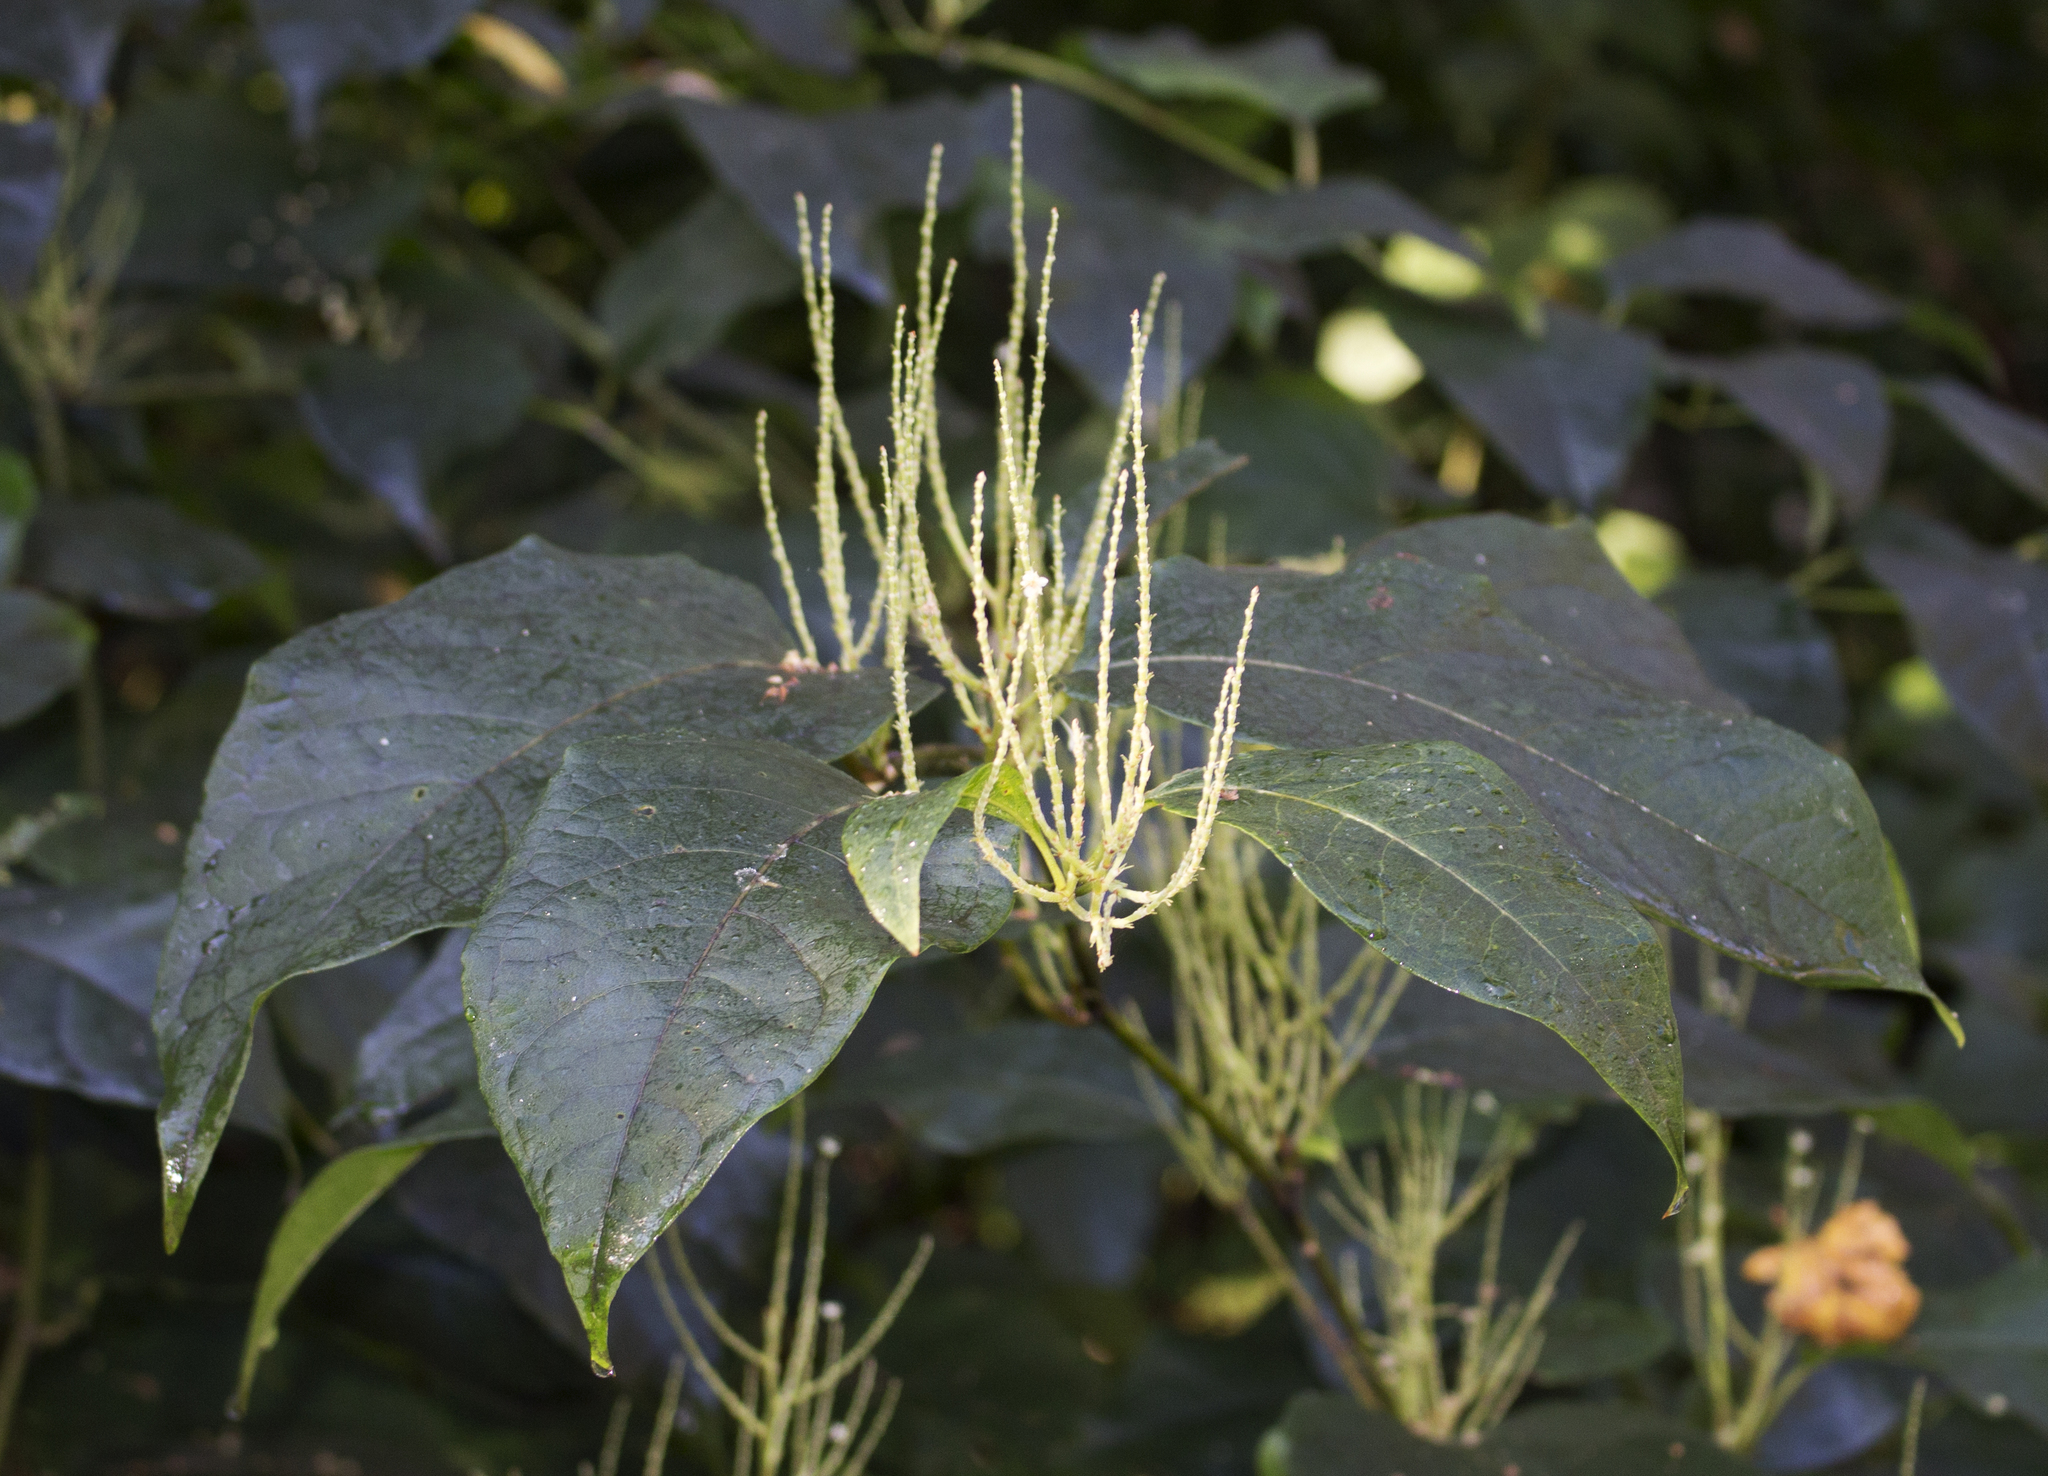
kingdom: Plantae
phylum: Tracheophyta
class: Magnoliopsida
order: Caryophyllales
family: Polygonaceae
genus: Reynoutria
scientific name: Reynoutria japonica
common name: Japanese knotweed
